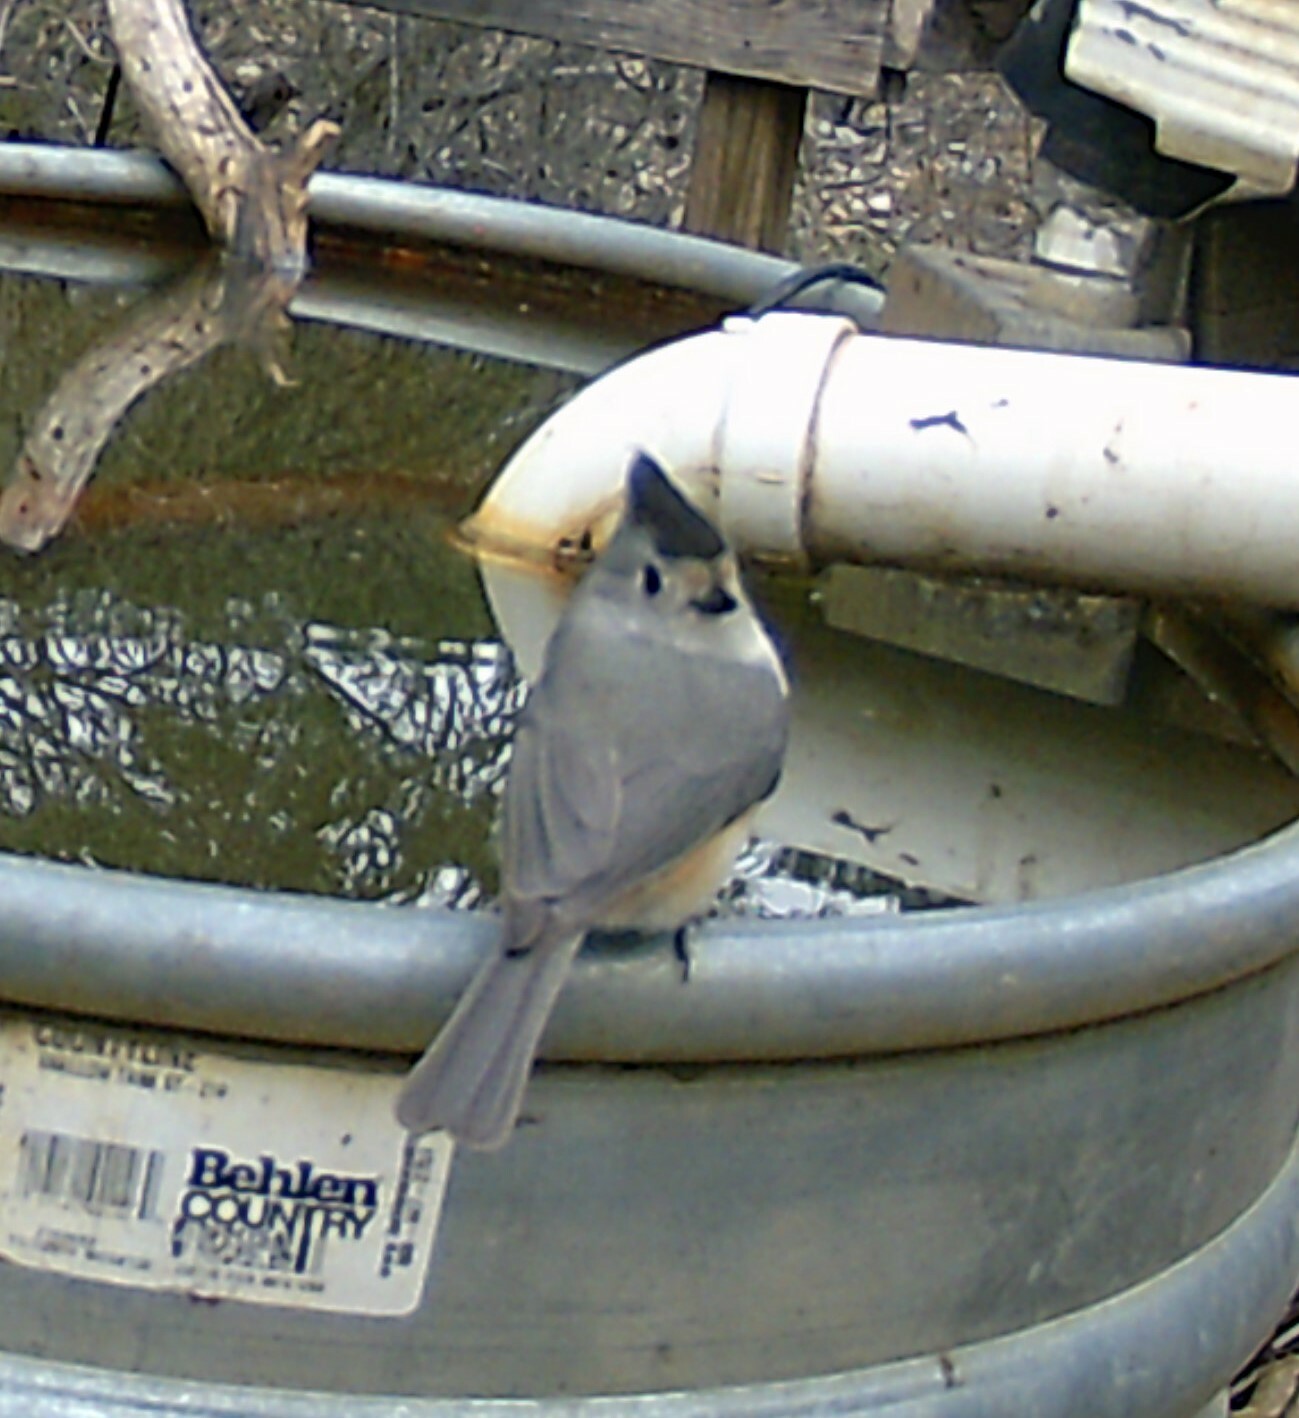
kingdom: Animalia
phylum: Chordata
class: Aves
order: Passeriformes
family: Paridae
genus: Baeolophus
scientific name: Baeolophus atricristatus
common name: Black-crested titmouse
